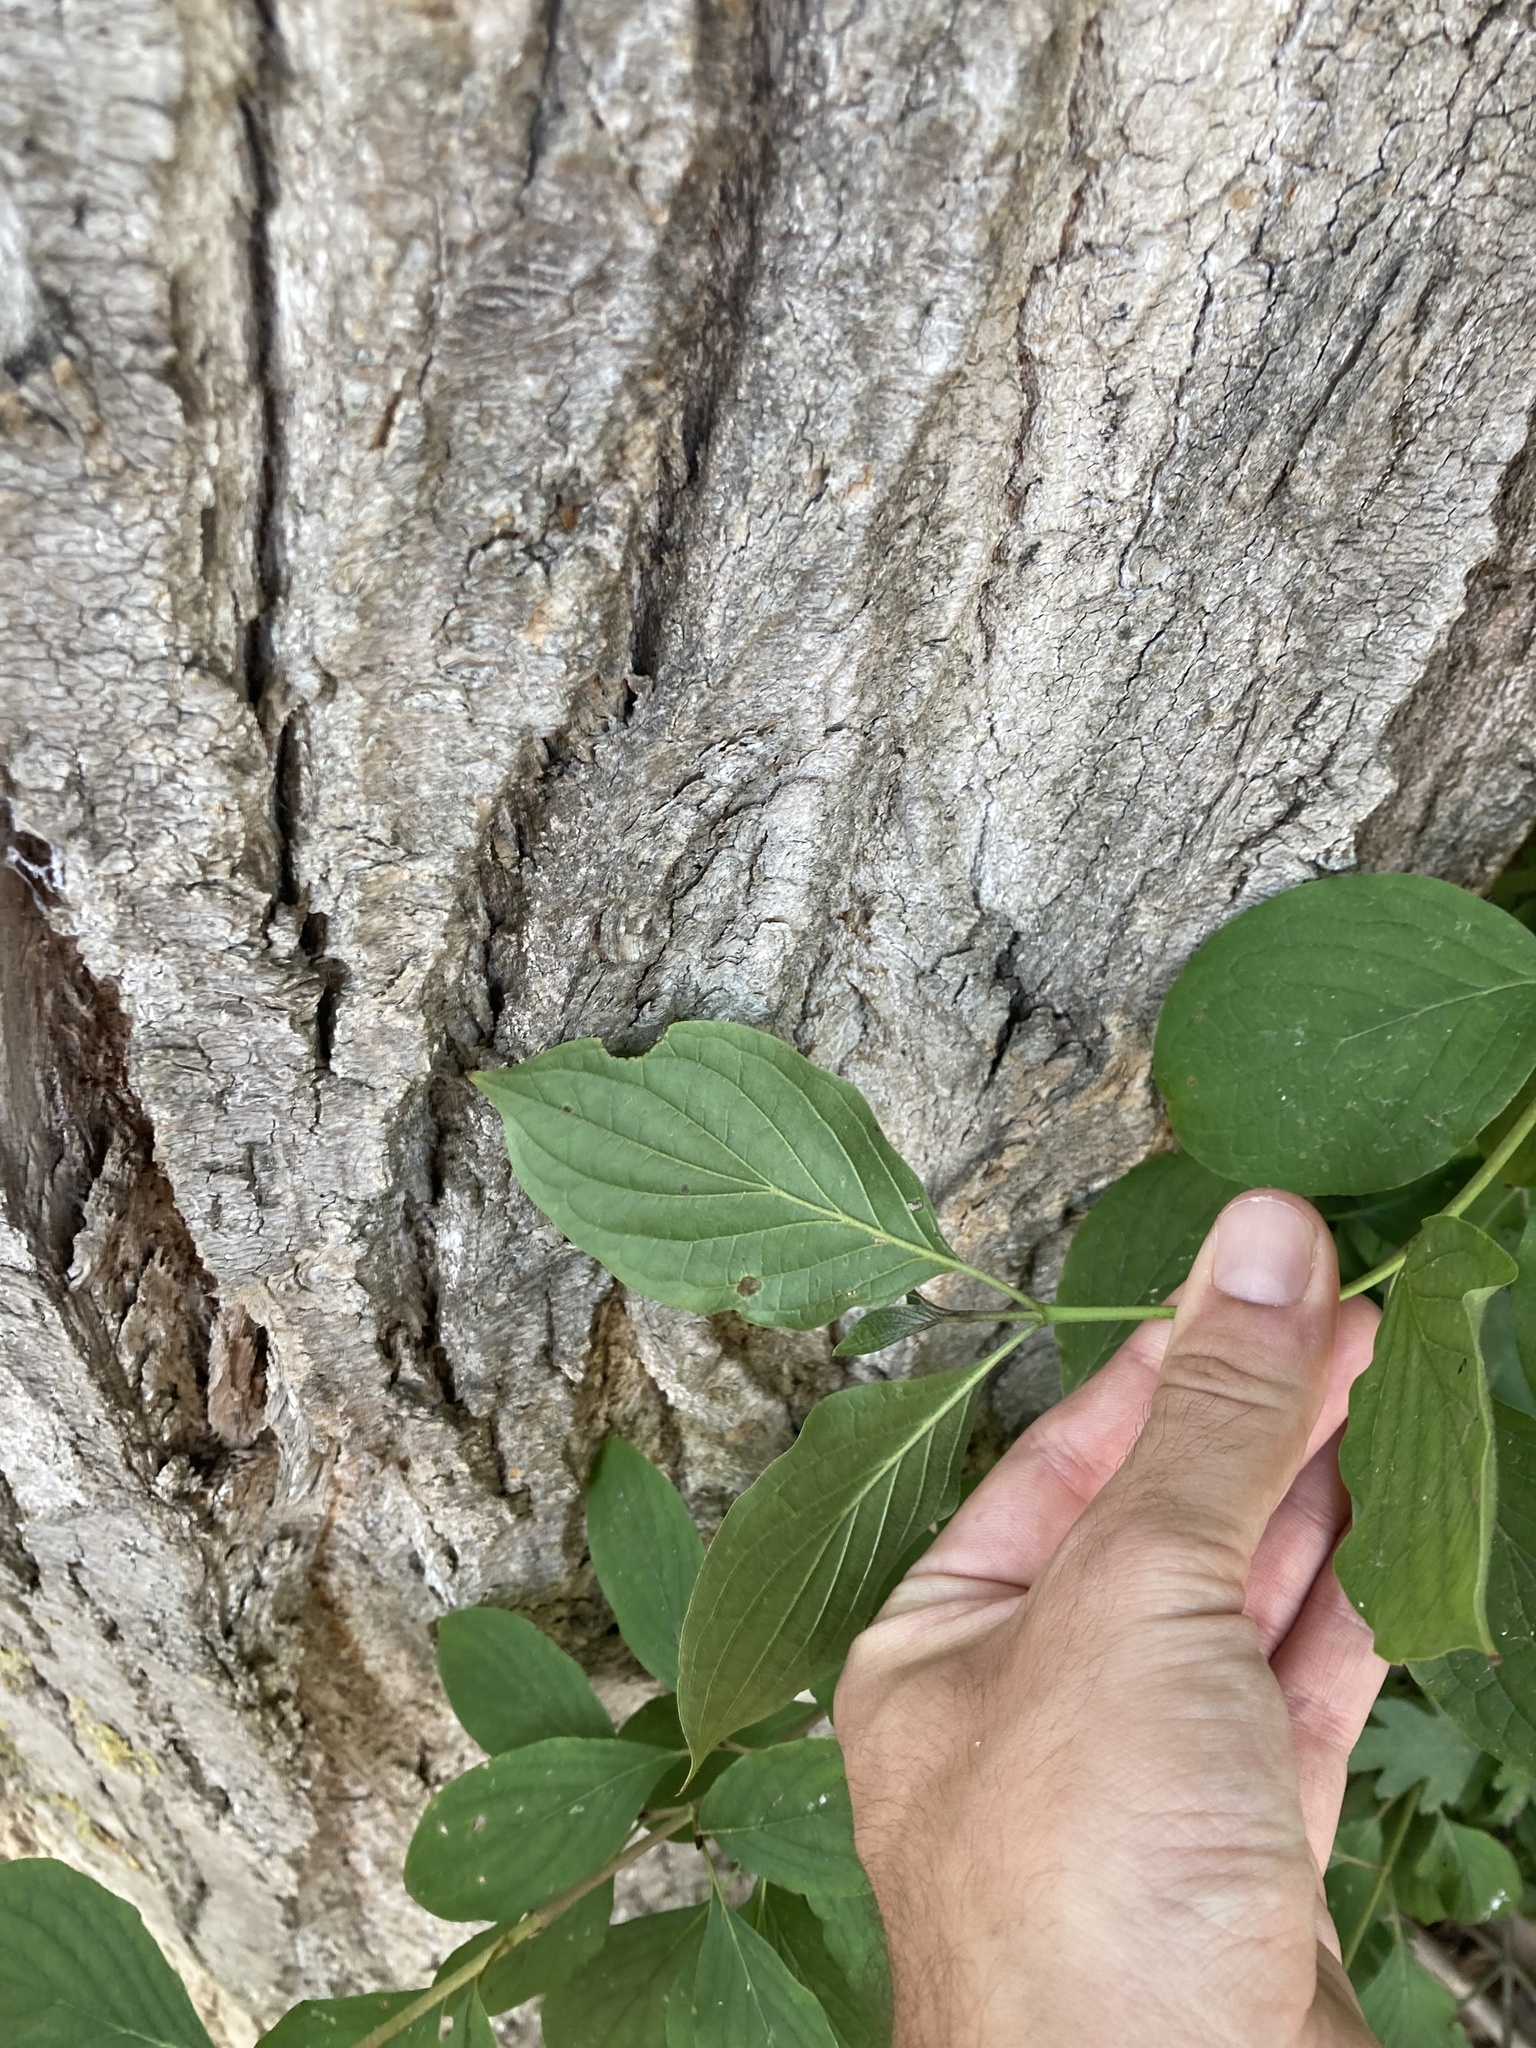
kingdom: Plantae
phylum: Tracheophyta
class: Magnoliopsida
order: Cornales
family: Cornaceae
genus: Cornus
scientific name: Cornus sanguinea
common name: Dogwood
